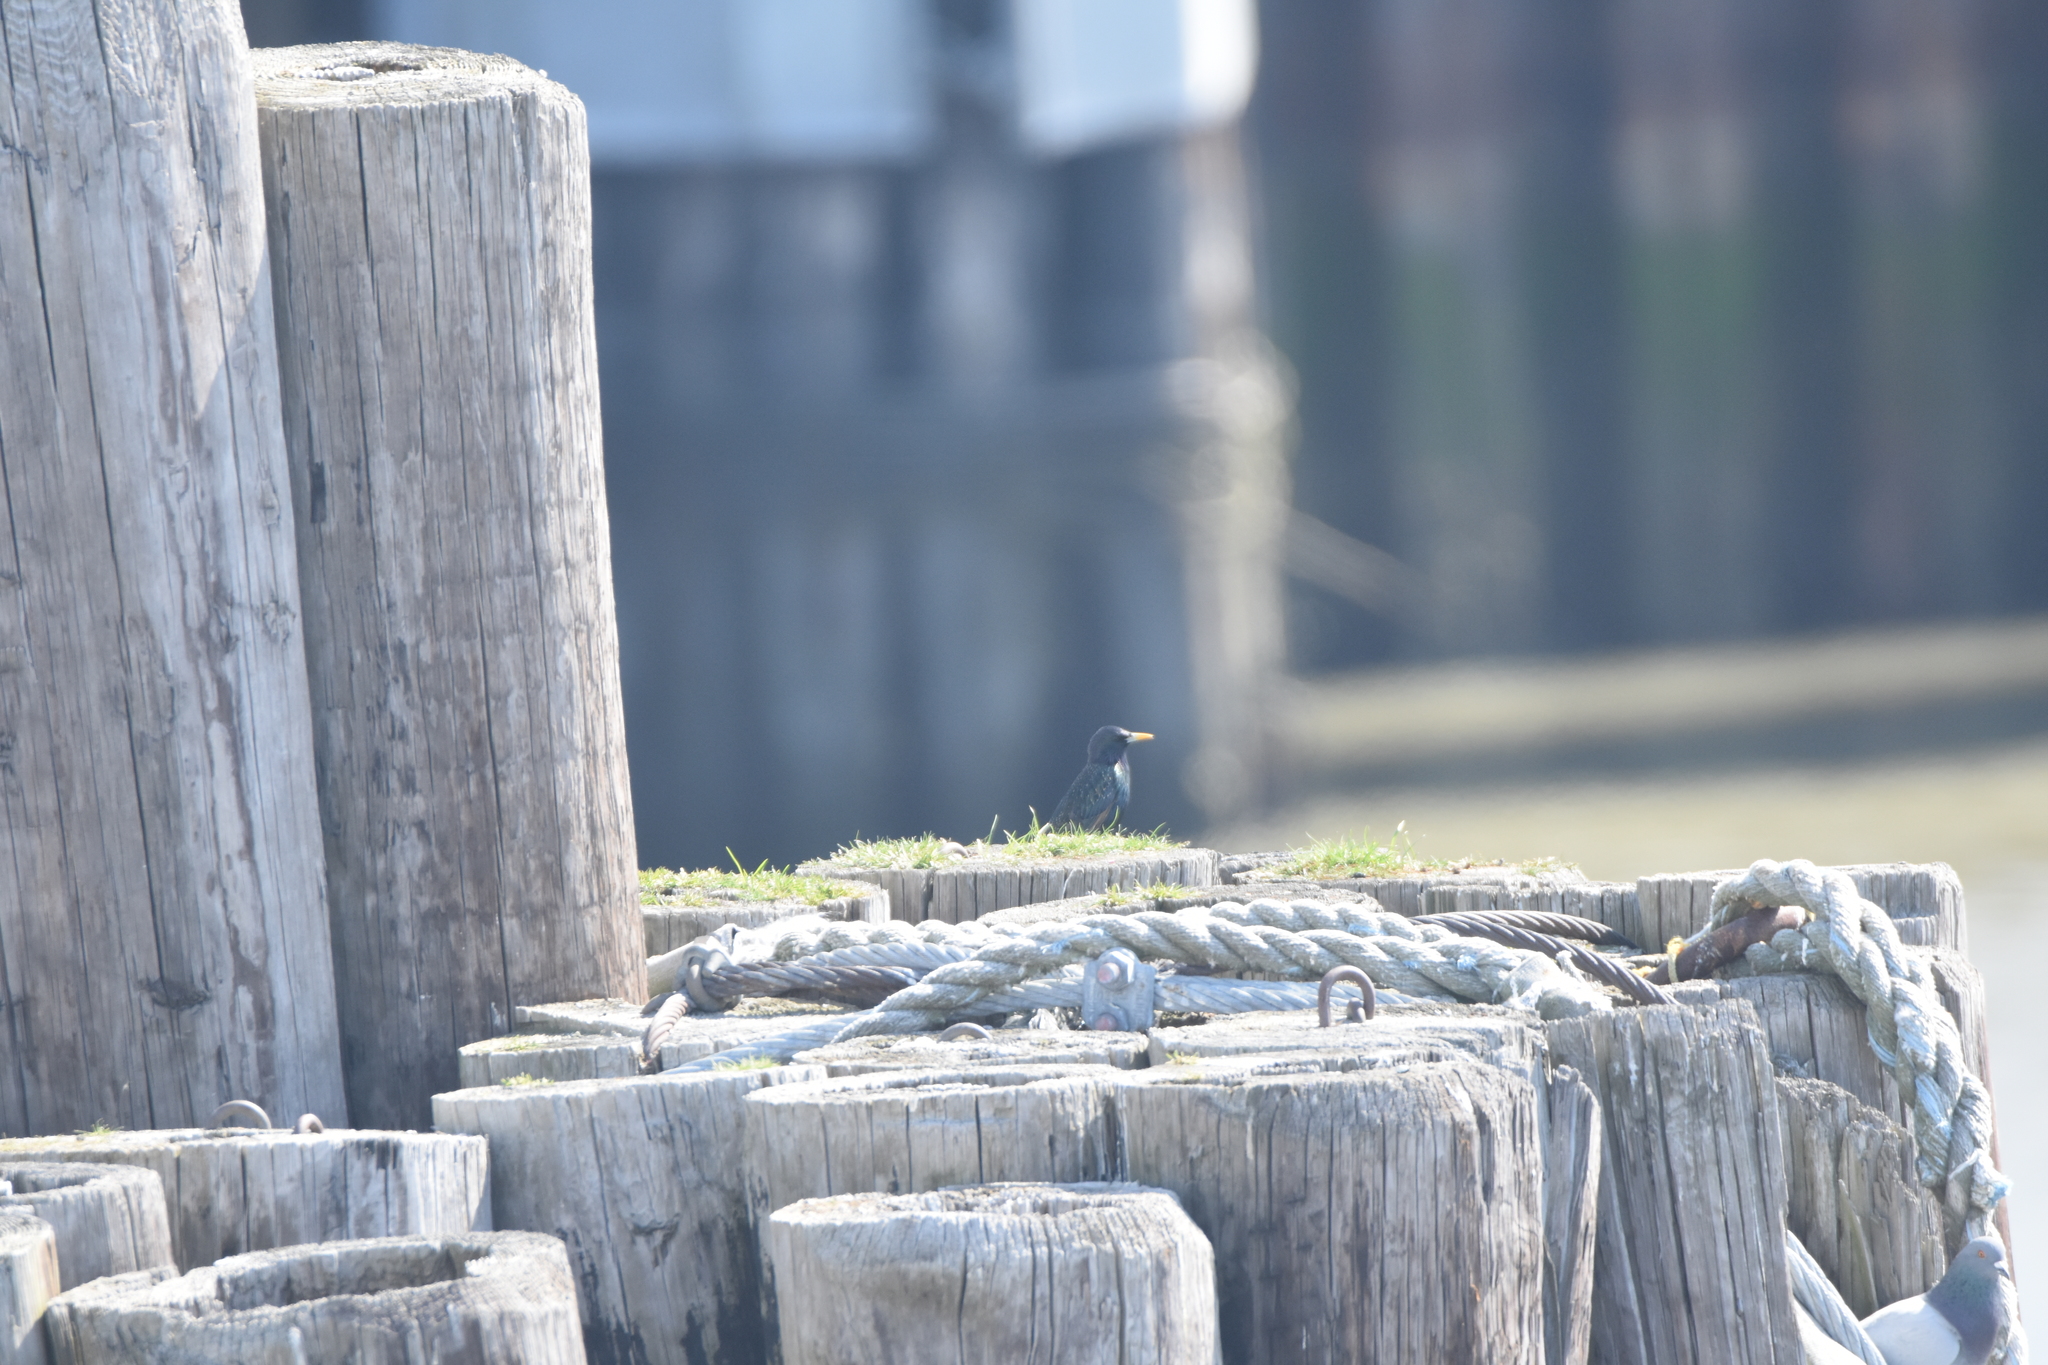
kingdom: Animalia
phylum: Chordata
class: Aves
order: Passeriformes
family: Sturnidae
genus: Sturnus
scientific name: Sturnus vulgaris
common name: Common starling
